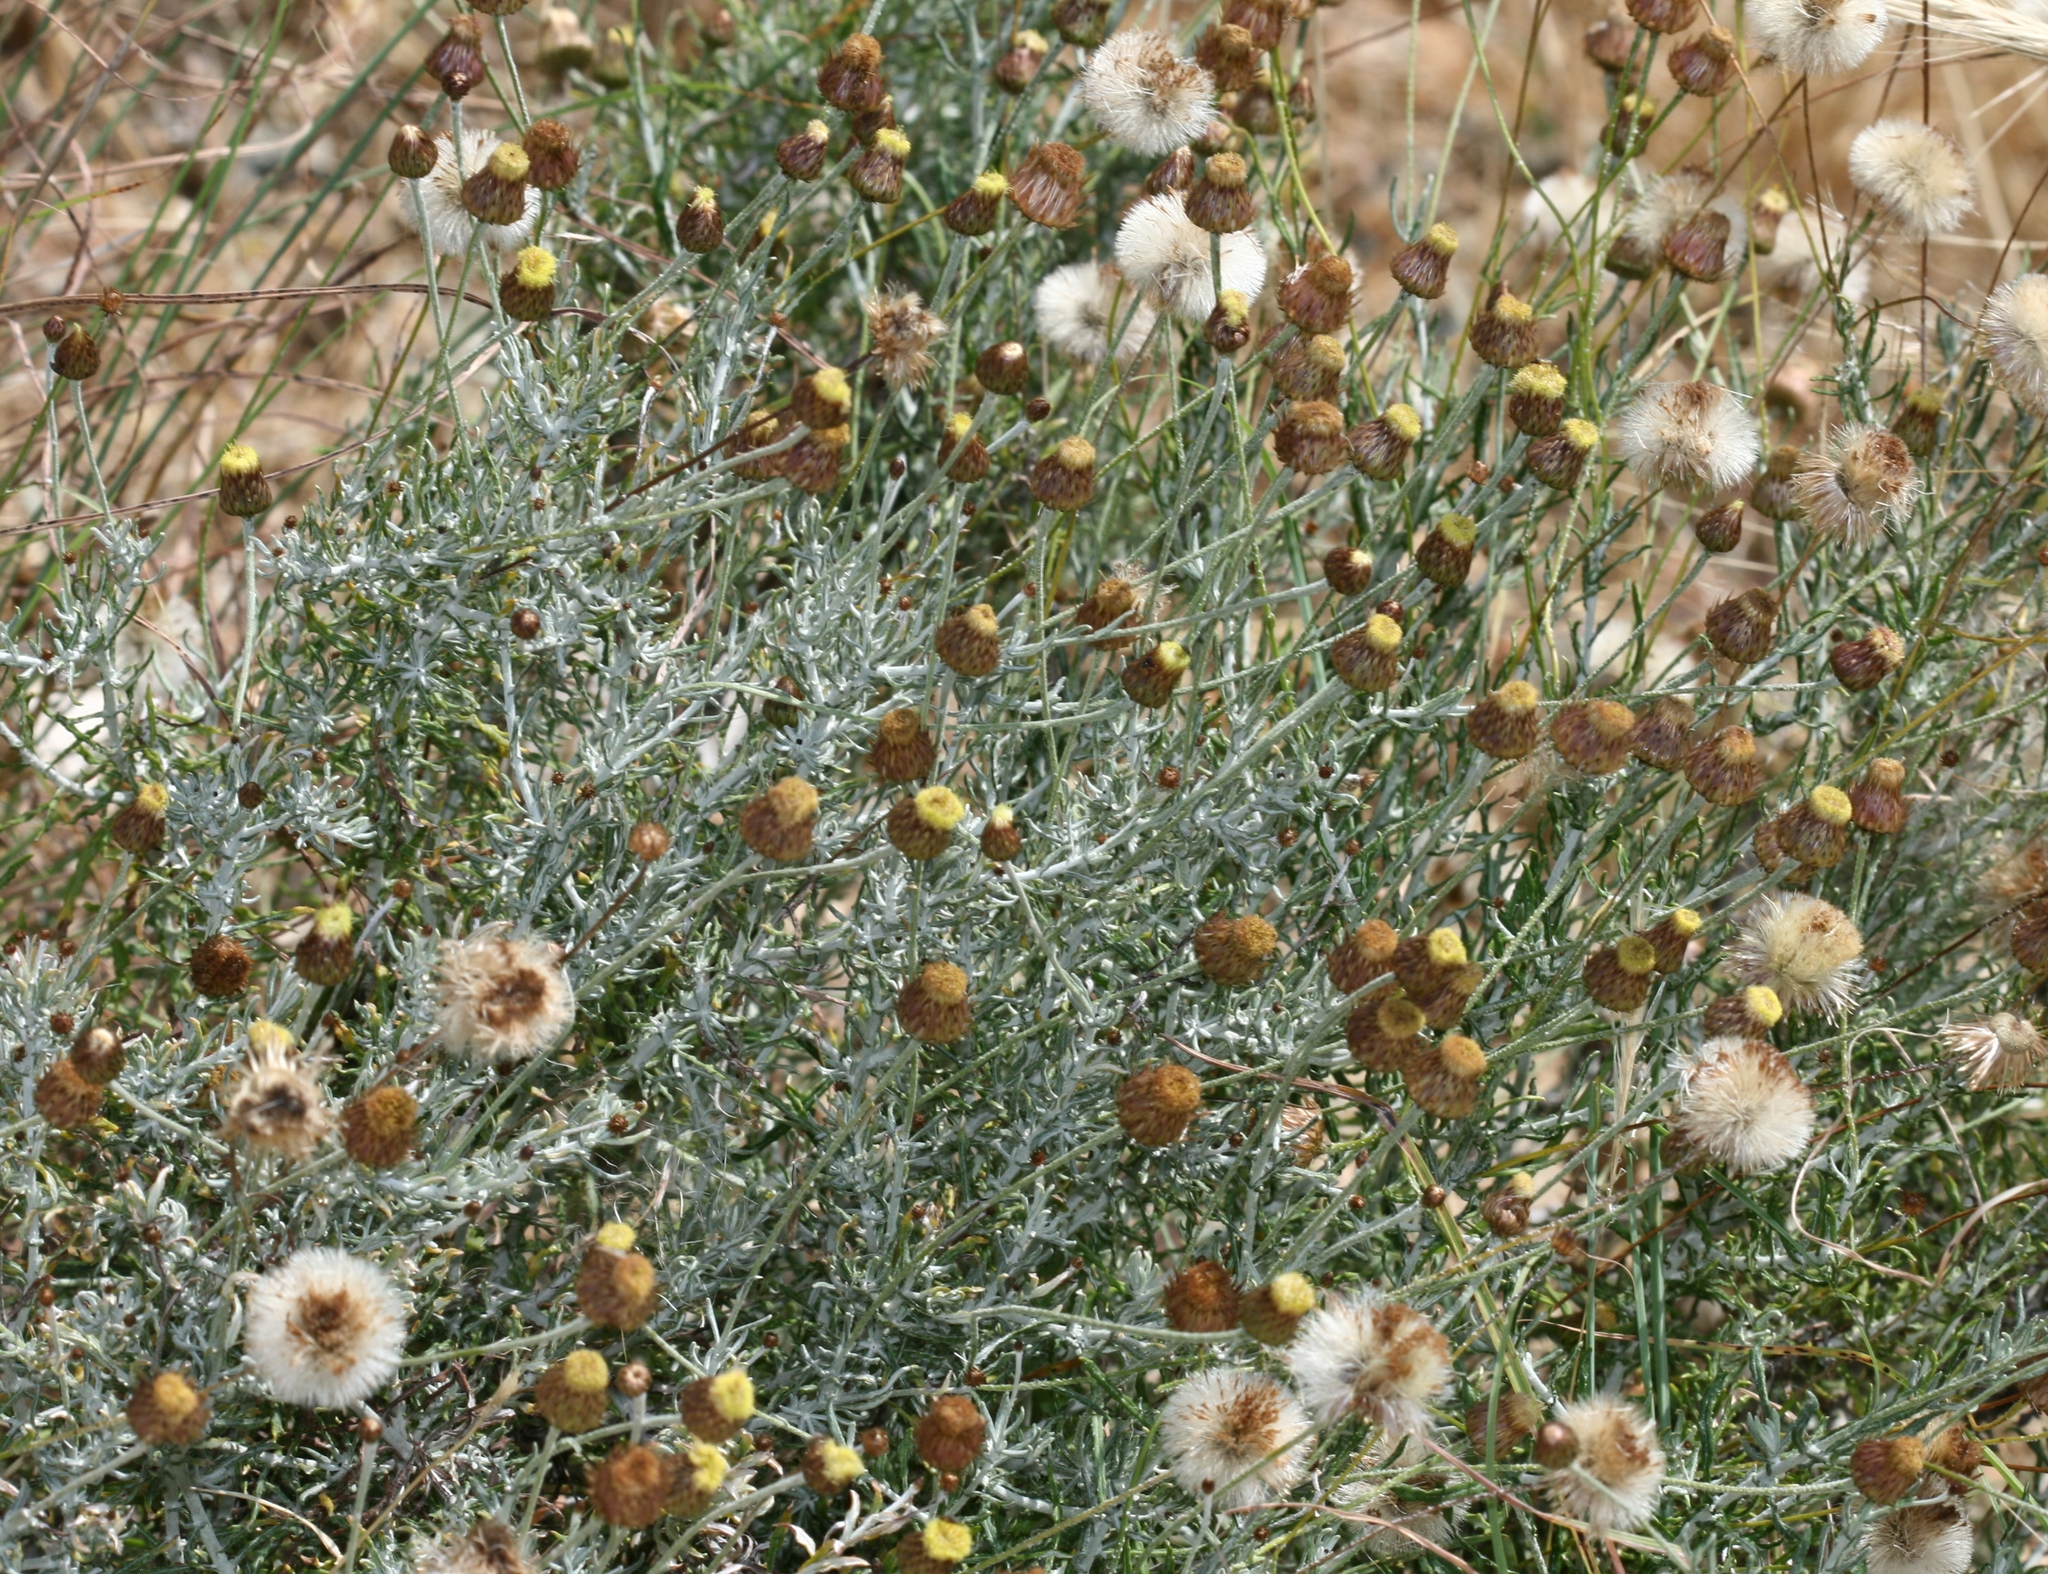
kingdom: Plantae
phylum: Tracheophyta
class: Magnoliopsida
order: Asterales
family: Asteraceae
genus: Phagnalon
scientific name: Phagnalon graecum
